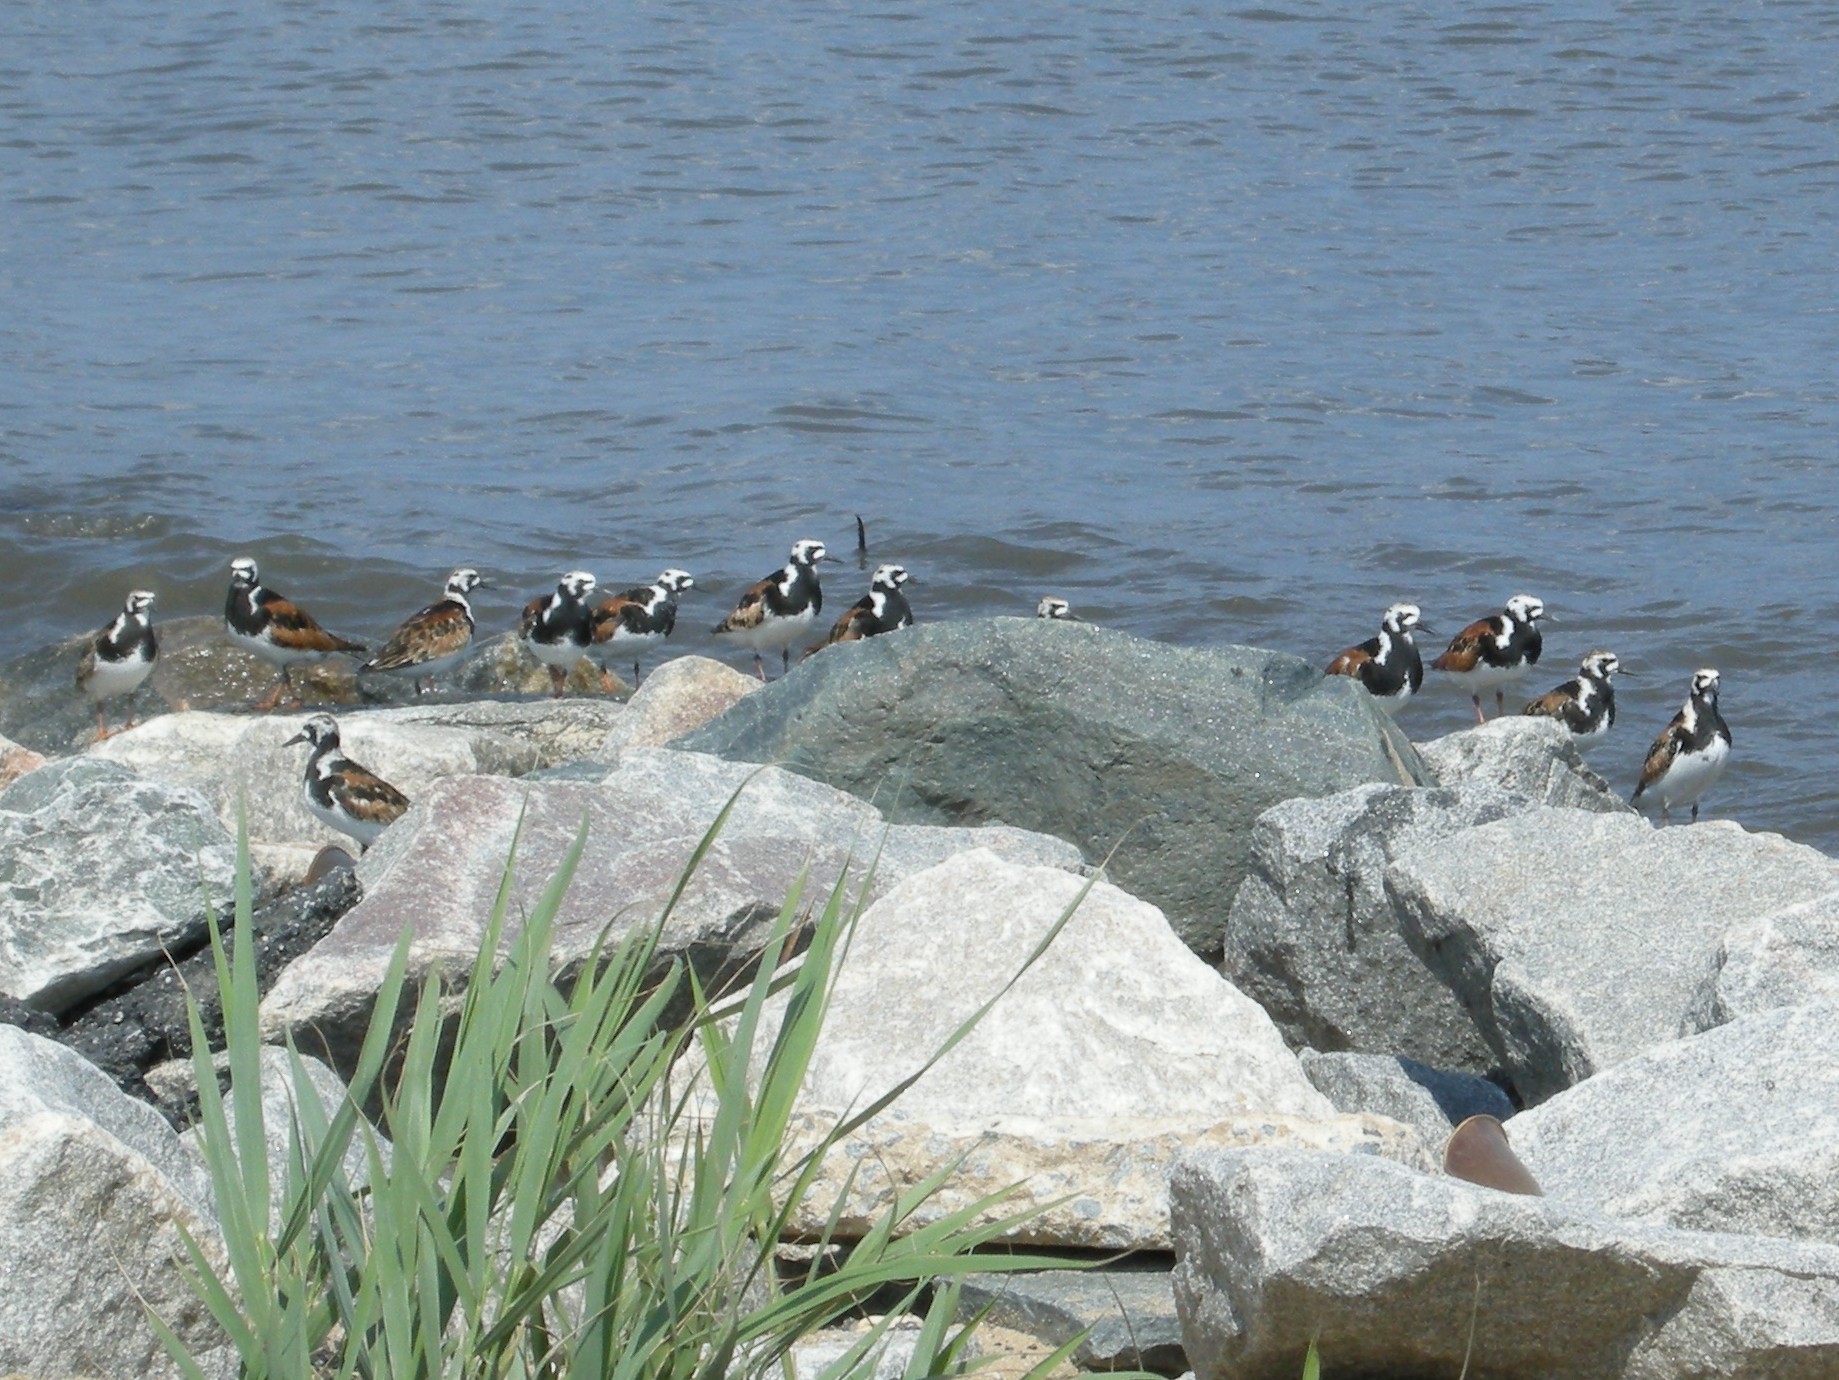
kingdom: Animalia
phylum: Chordata
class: Aves
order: Charadriiformes
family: Scolopacidae
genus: Arenaria
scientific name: Arenaria interpres
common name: Ruddy turnstone
